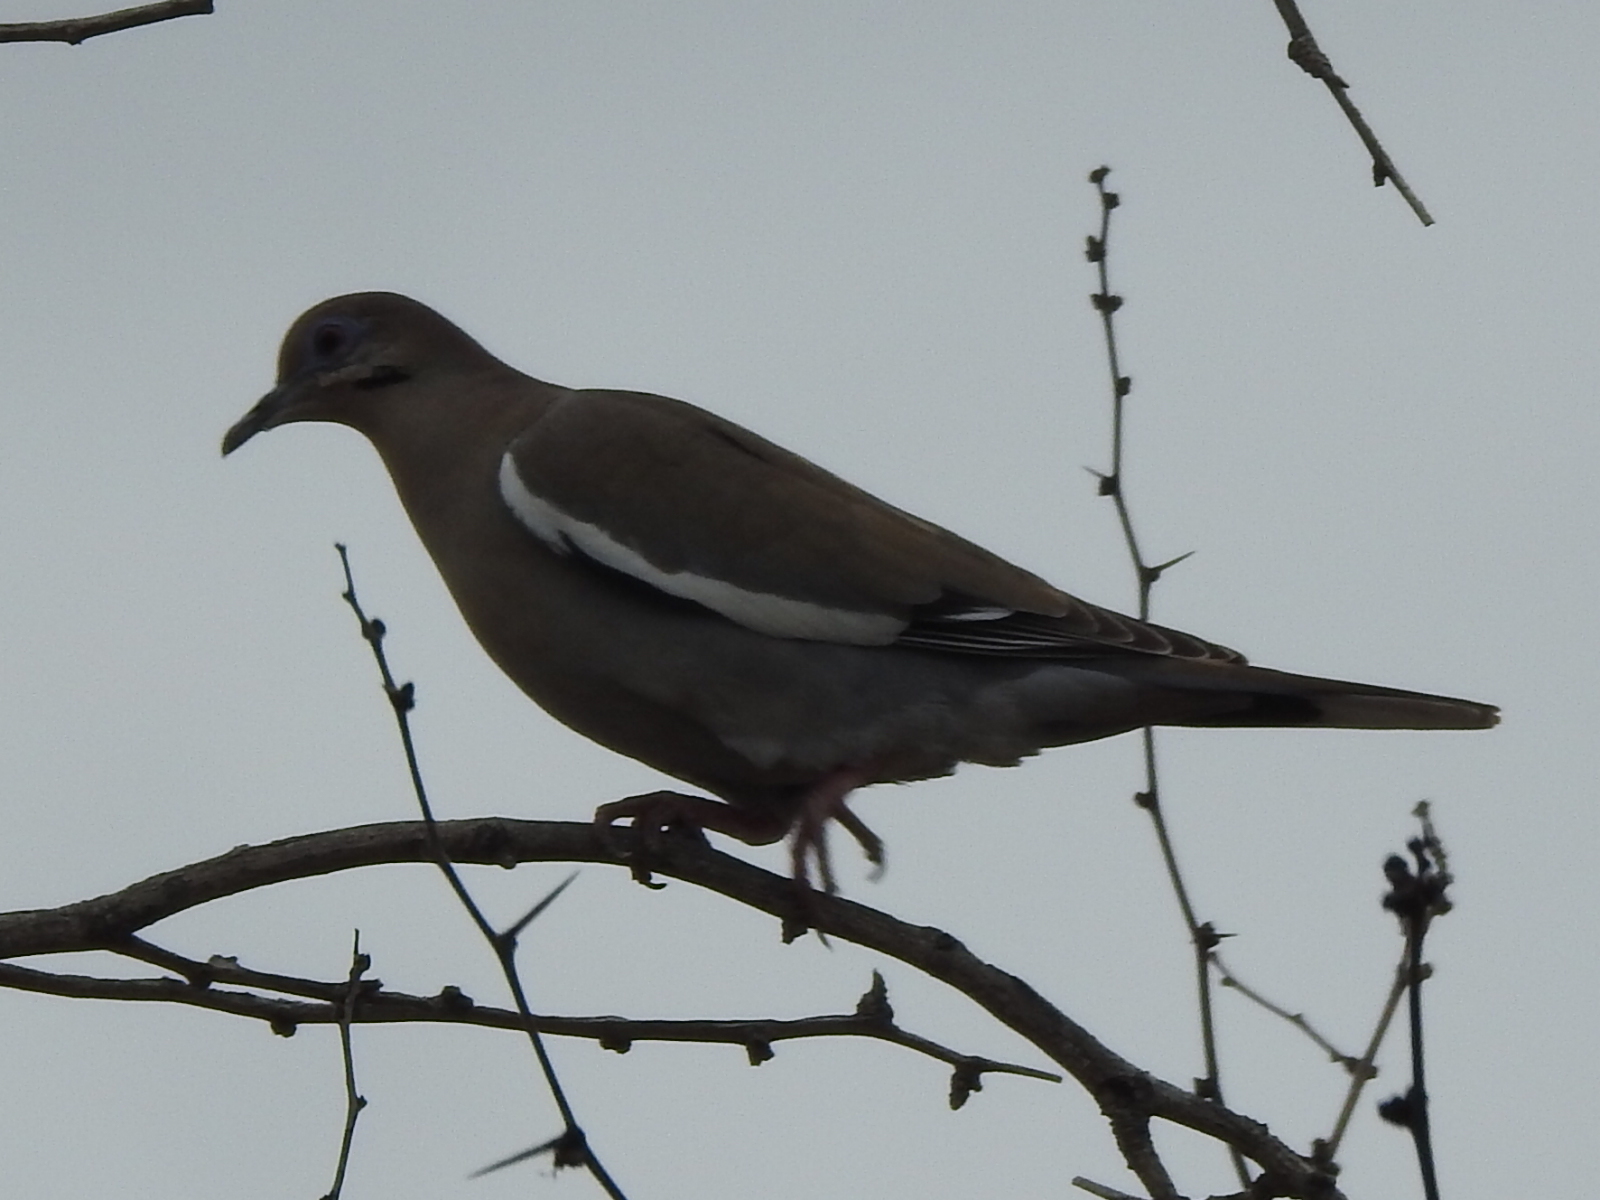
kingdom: Animalia
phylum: Chordata
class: Aves
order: Columbiformes
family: Columbidae
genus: Zenaida
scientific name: Zenaida asiatica
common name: White-winged dove
